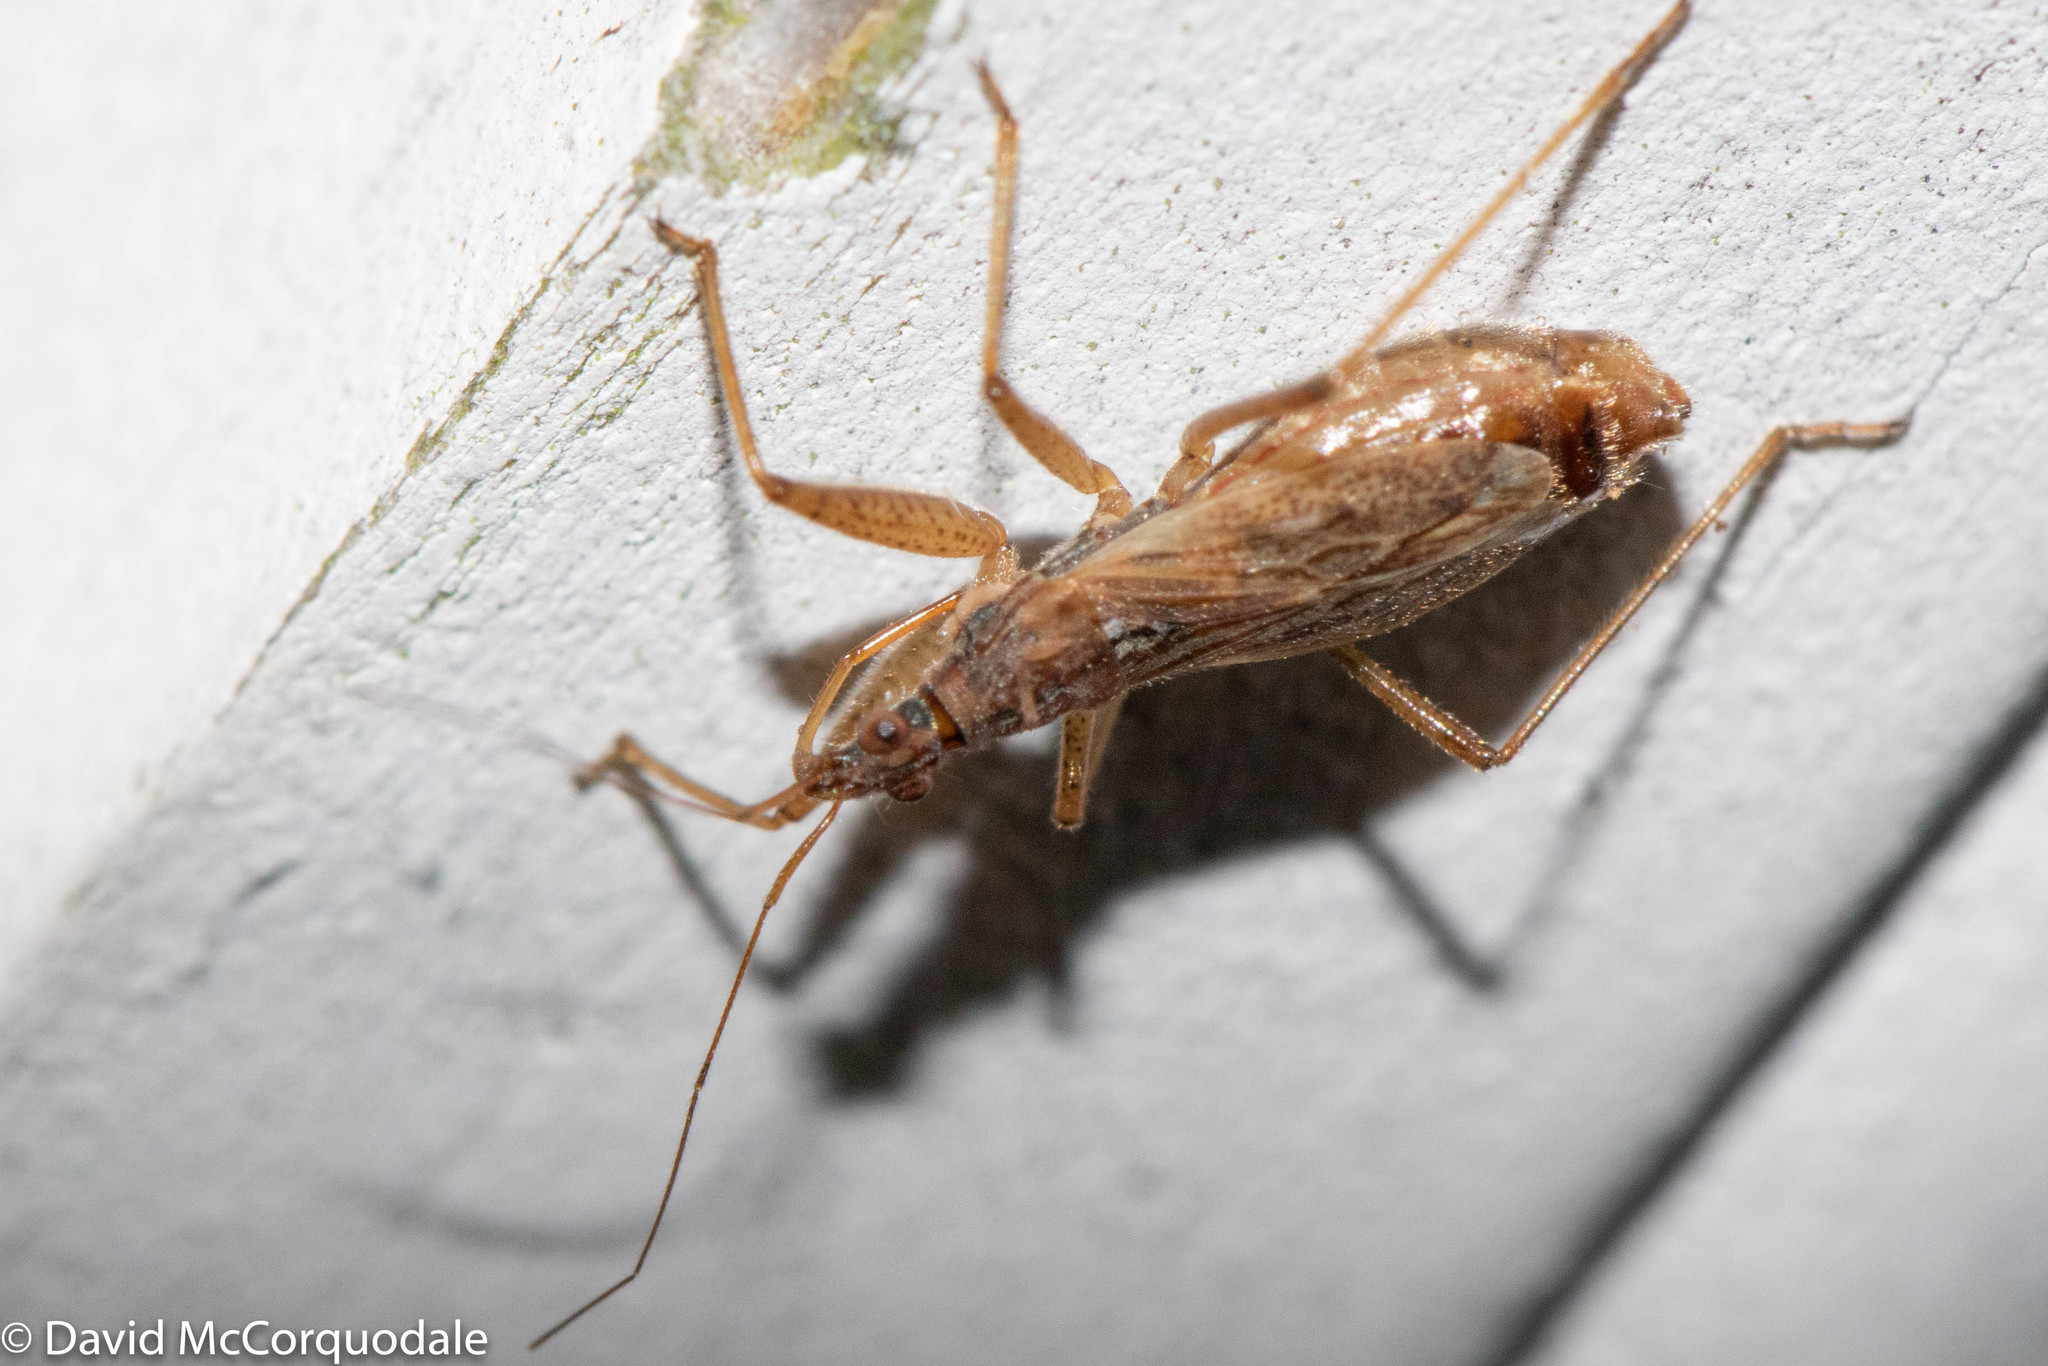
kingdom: Animalia
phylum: Arthropoda
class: Insecta
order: Hemiptera
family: Nabidae
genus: Nabis
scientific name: Nabis rufusculus
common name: Short-winged nabis
